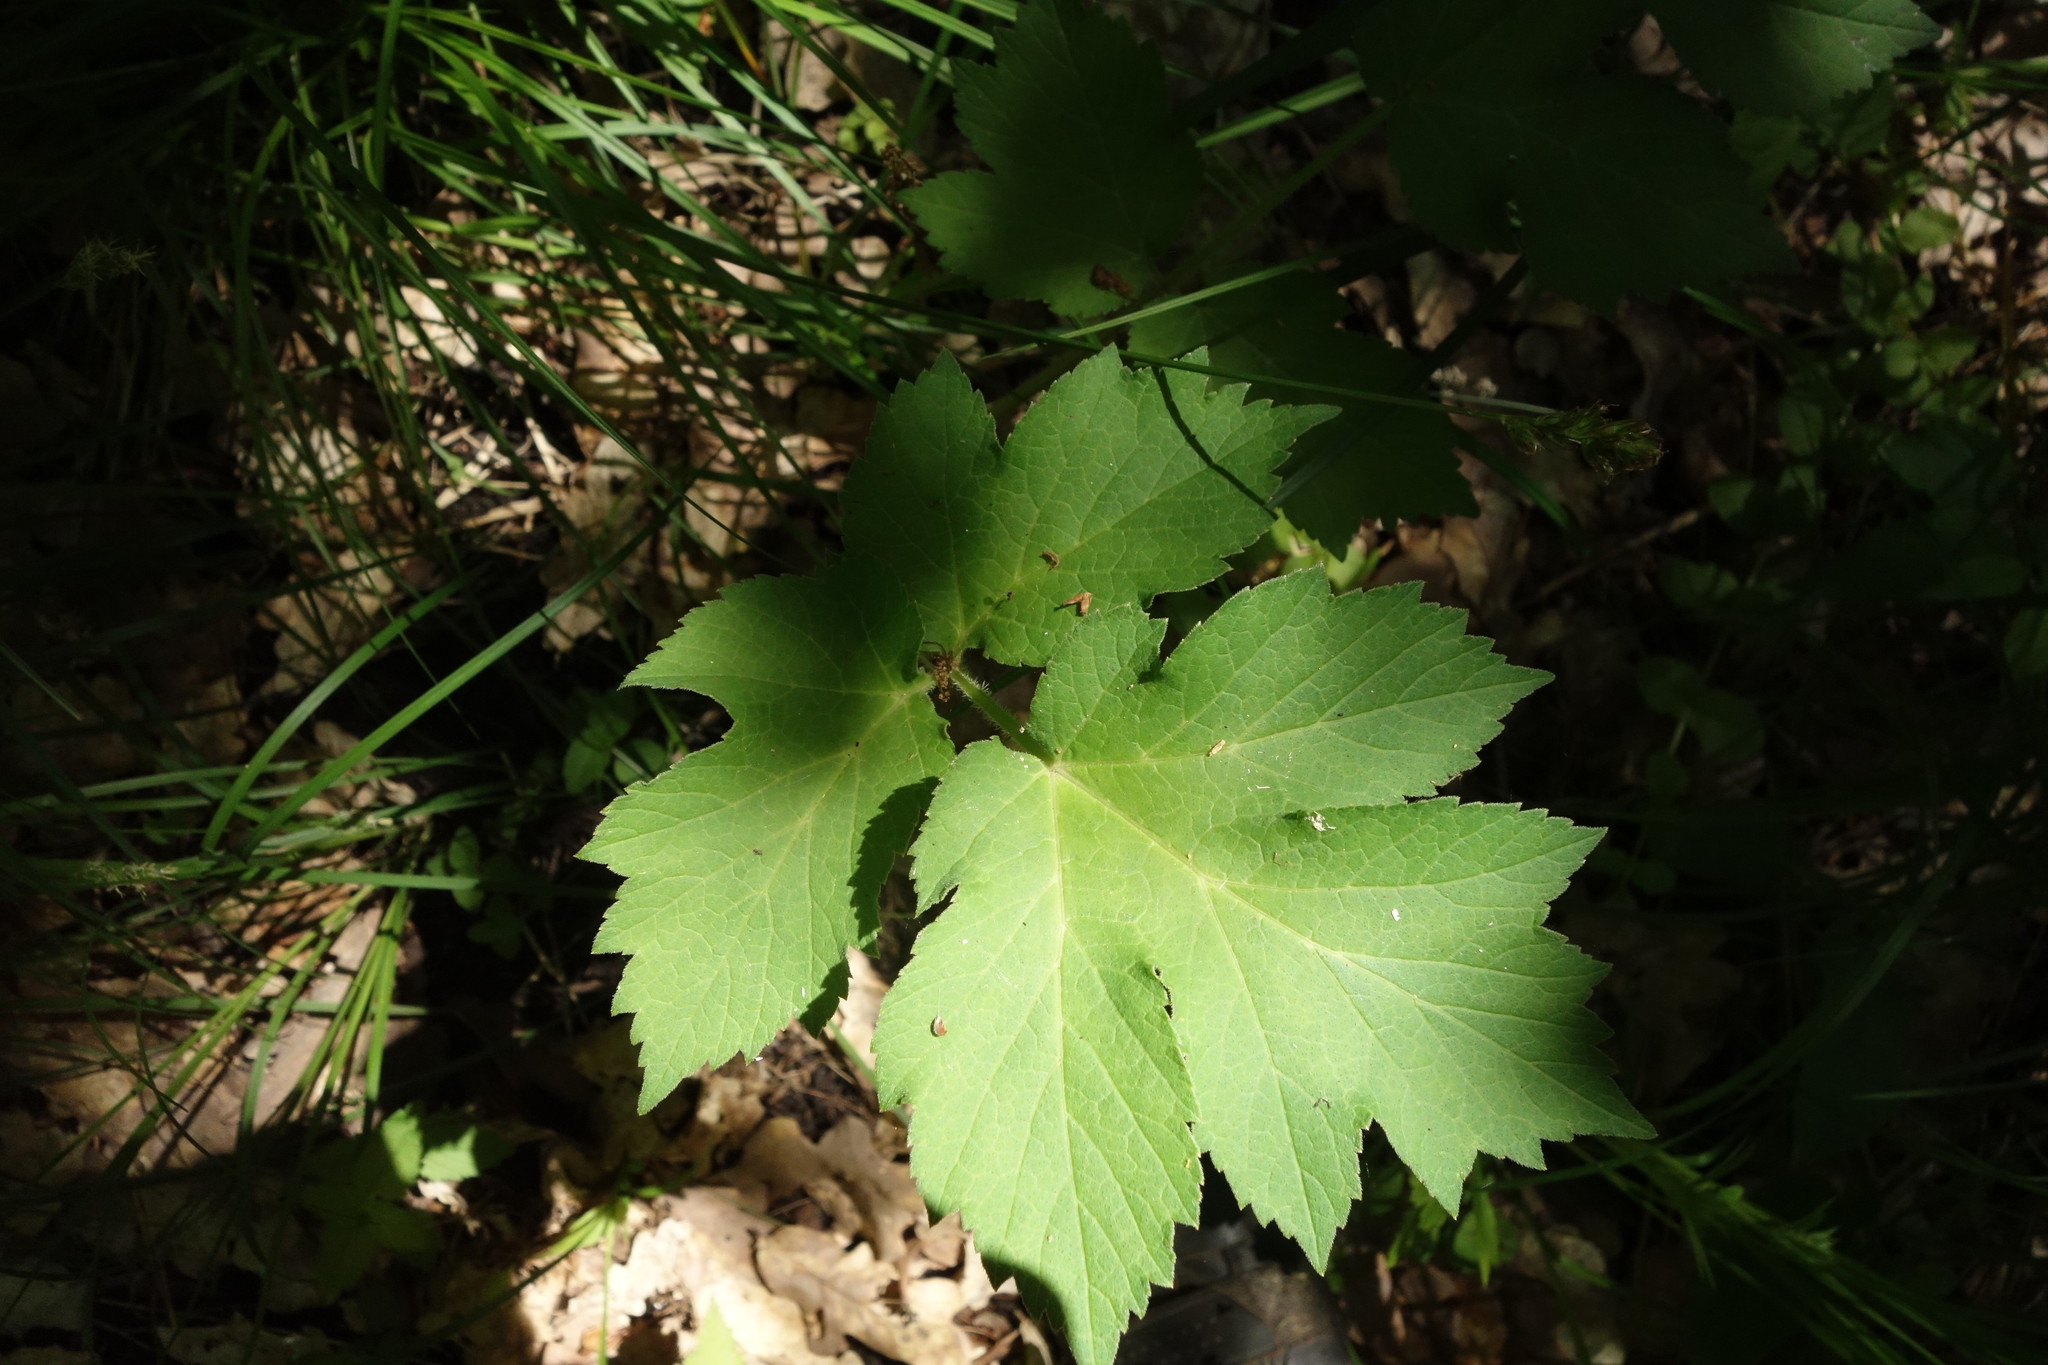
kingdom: Plantae
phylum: Tracheophyta
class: Magnoliopsida
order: Apiales
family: Apiaceae
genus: Heracleum
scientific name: Heracleum sphondylium
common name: Hogweed
